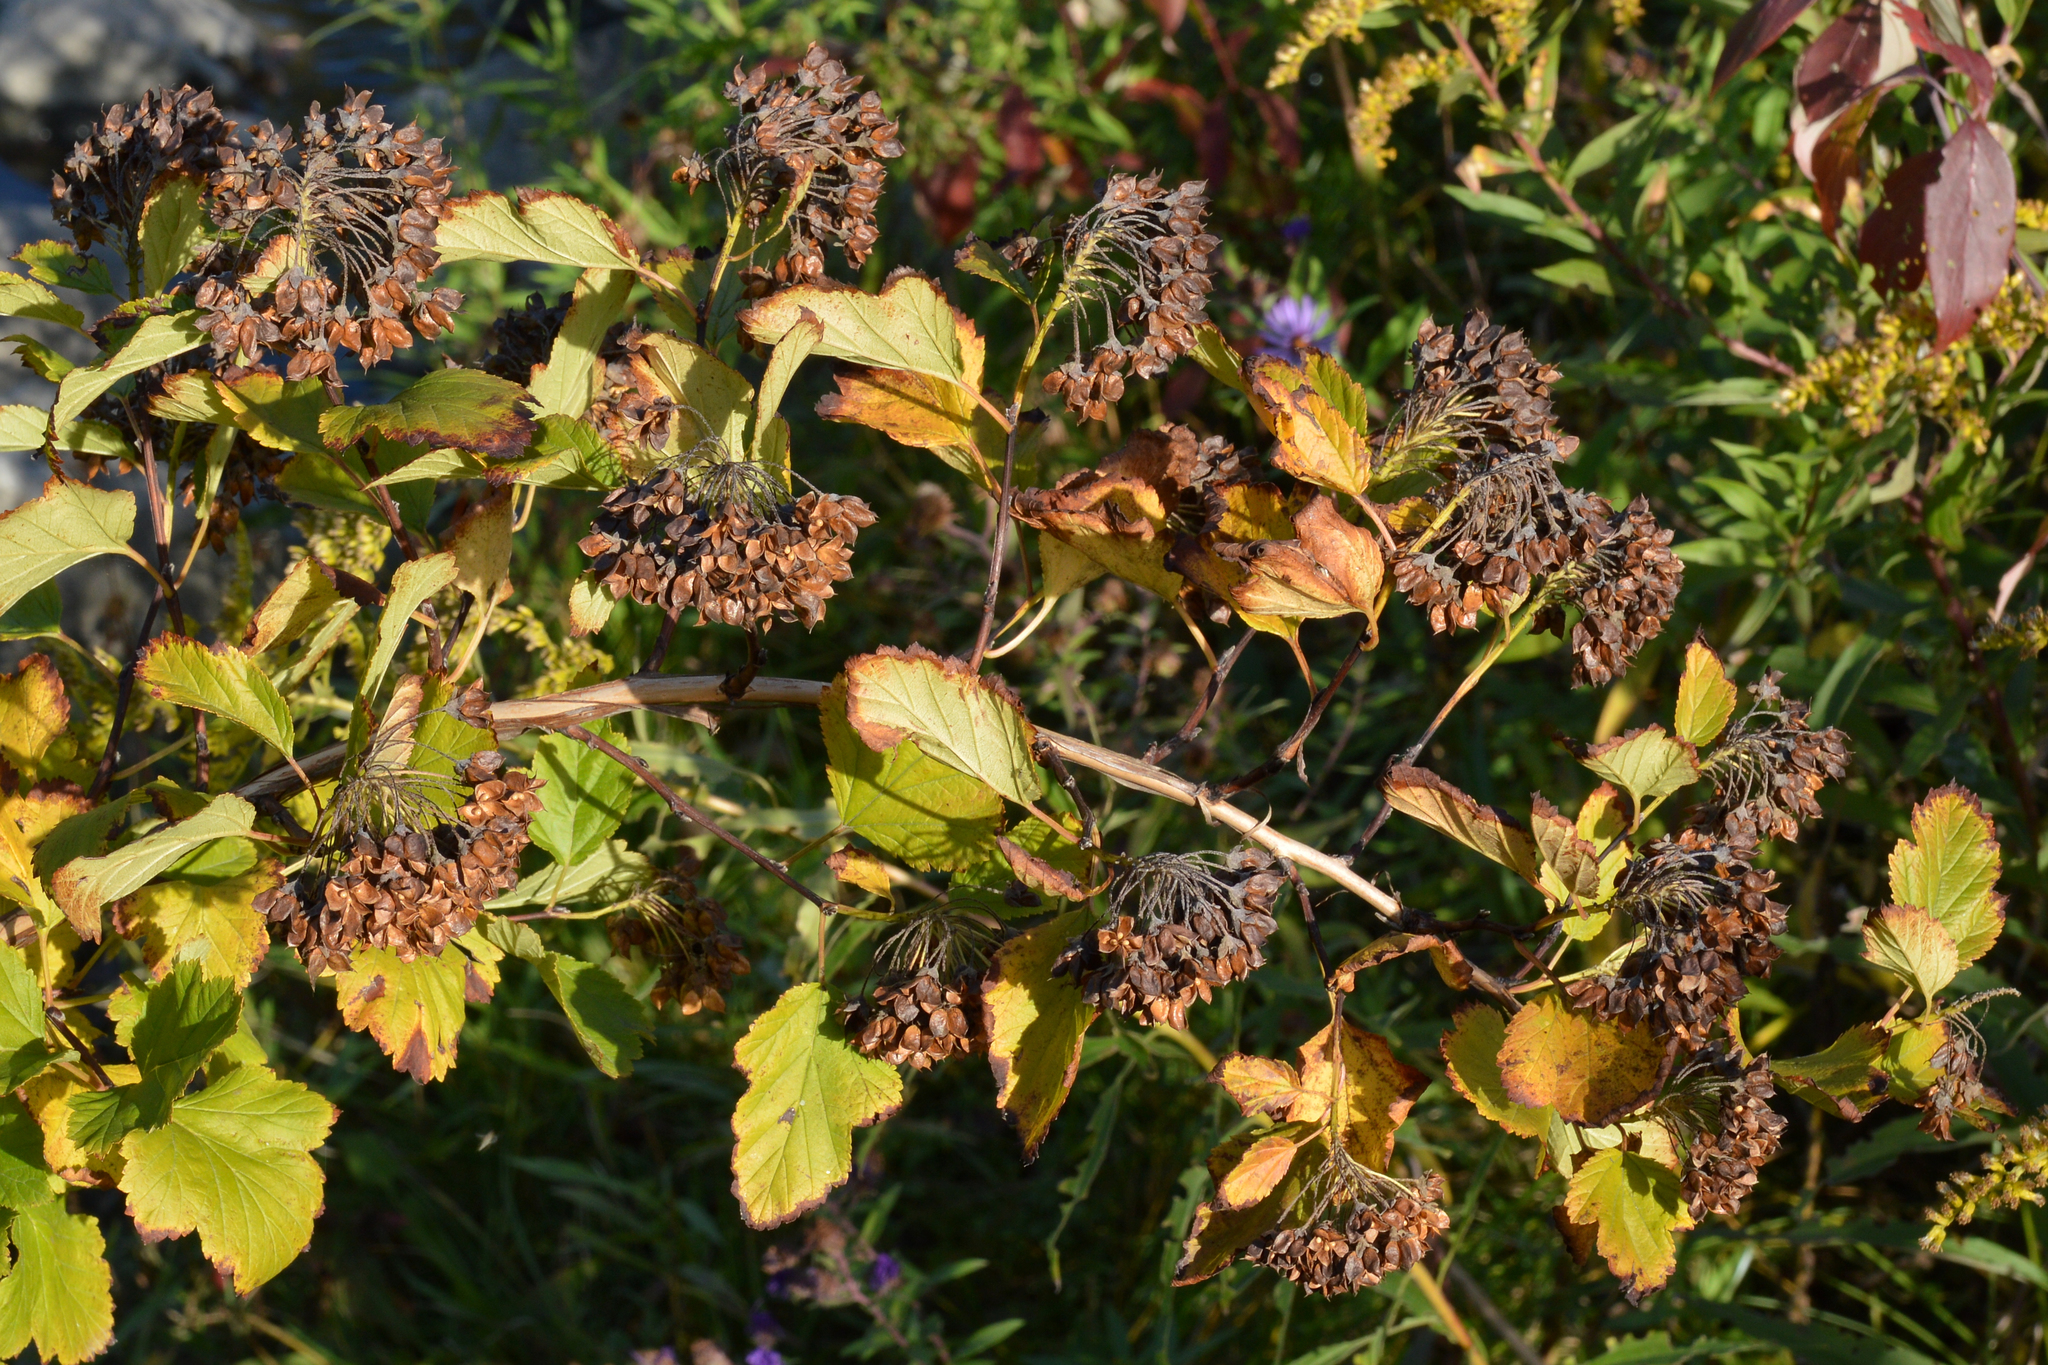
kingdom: Plantae
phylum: Tracheophyta
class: Magnoliopsida
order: Rosales
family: Rosaceae
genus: Physocarpus
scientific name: Physocarpus opulifolius
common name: Ninebark
